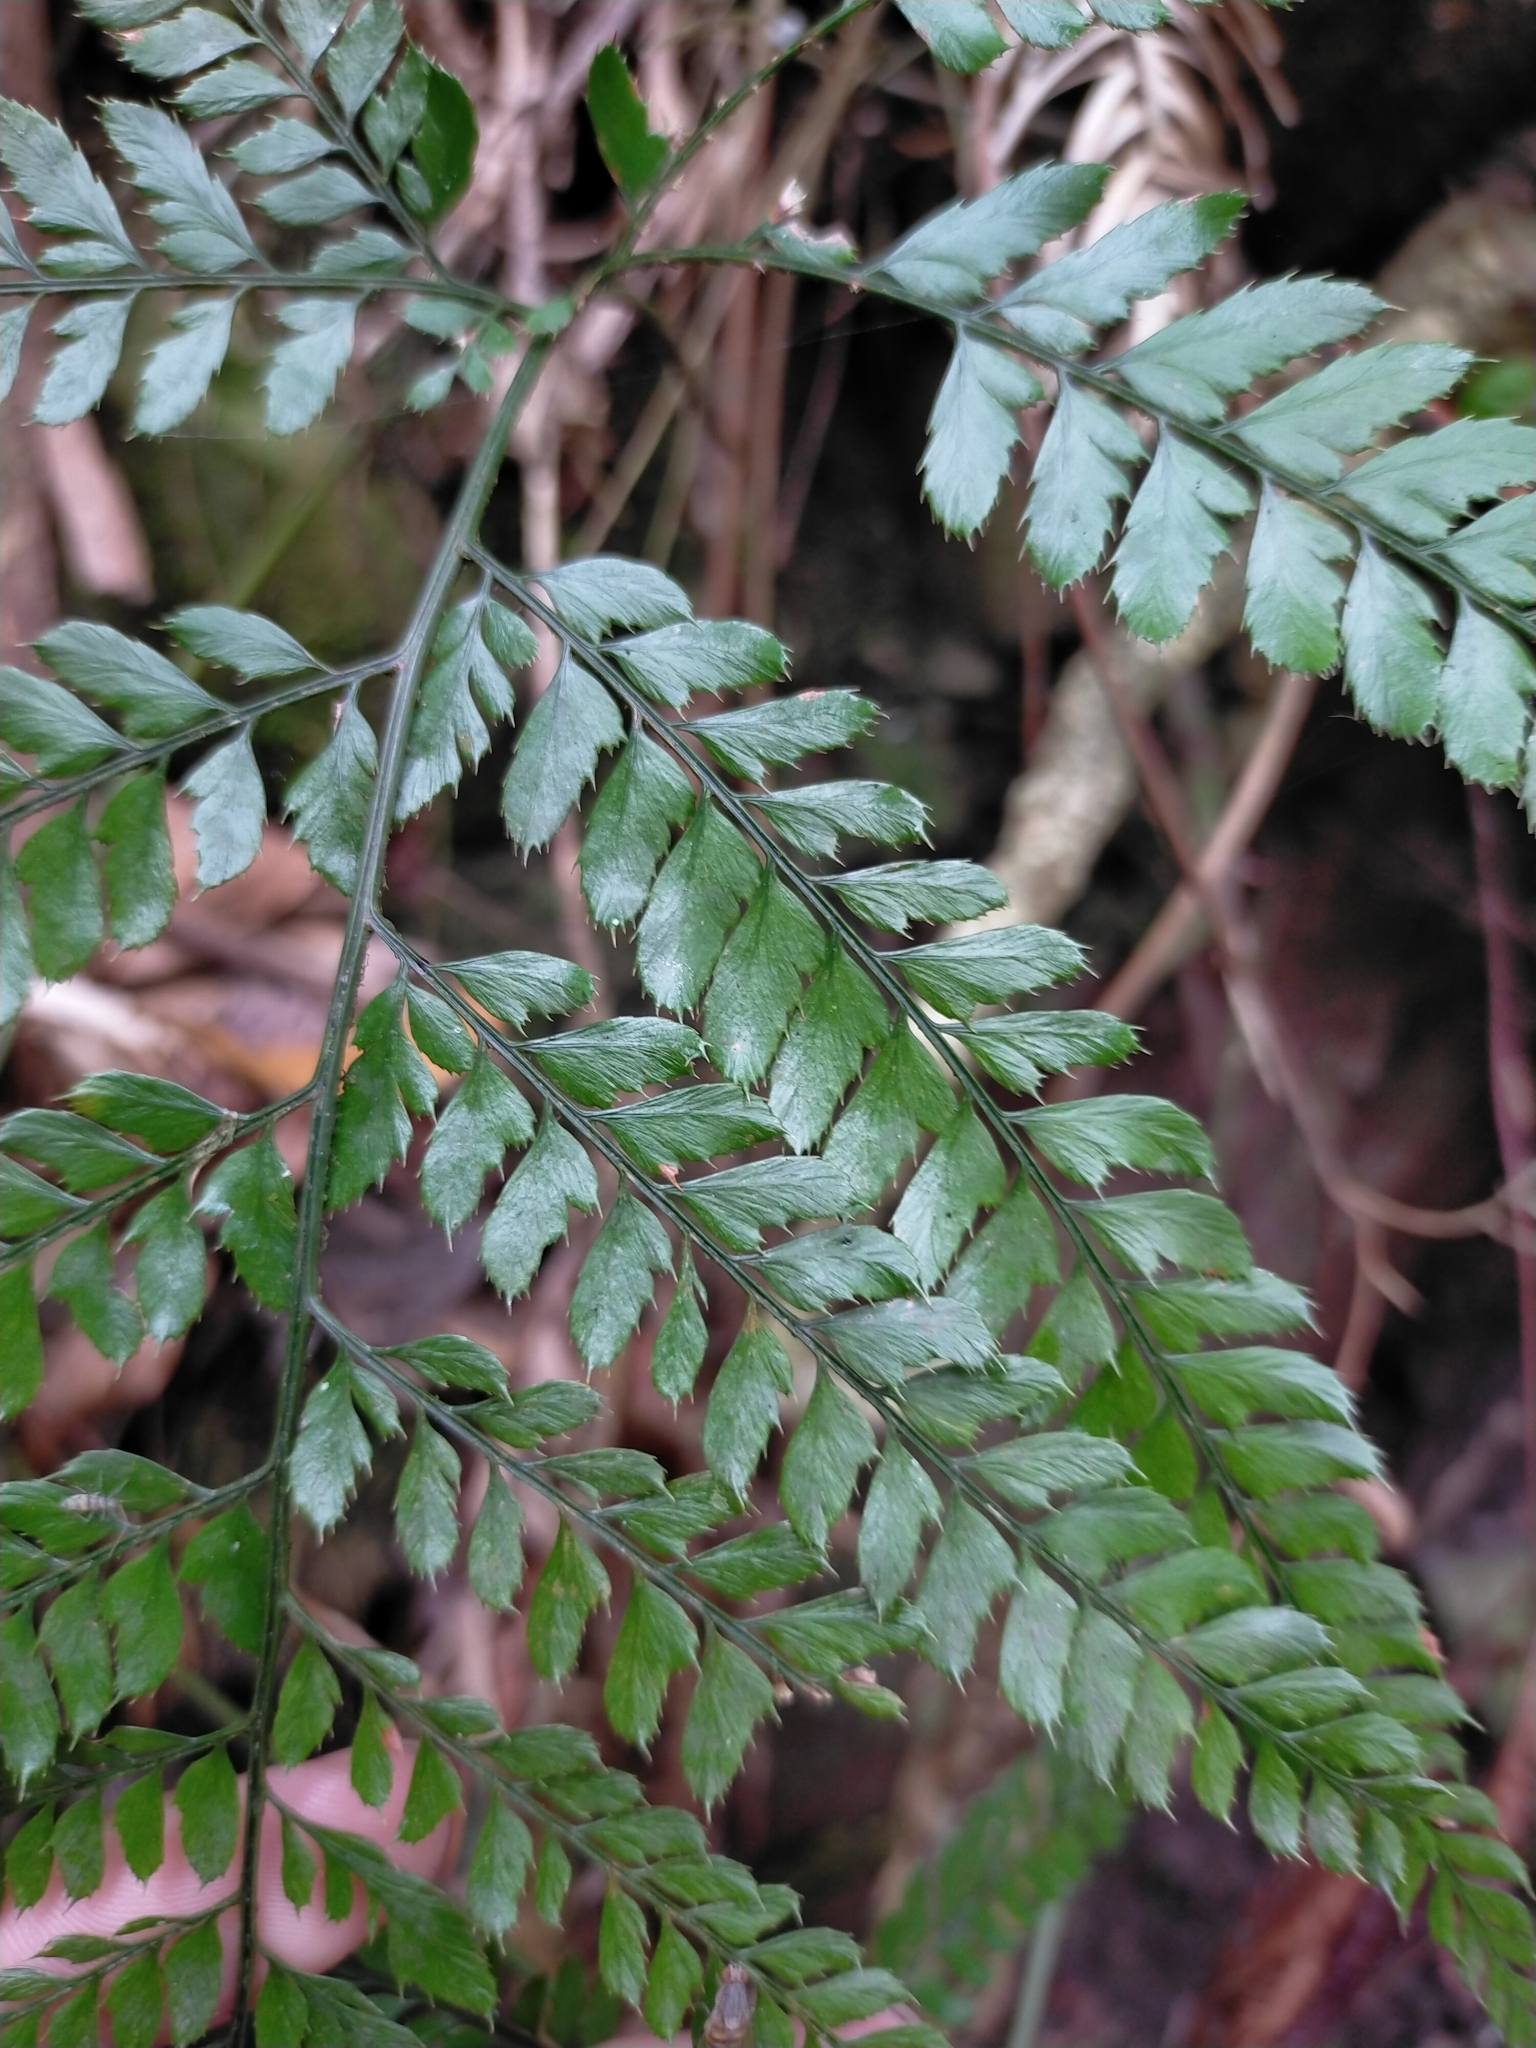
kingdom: Plantae
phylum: Tracheophyta
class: Polypodiopsida
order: Polypodiales
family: Dryopteridaceae
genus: Arachniodes
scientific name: Arachniodes aristata
